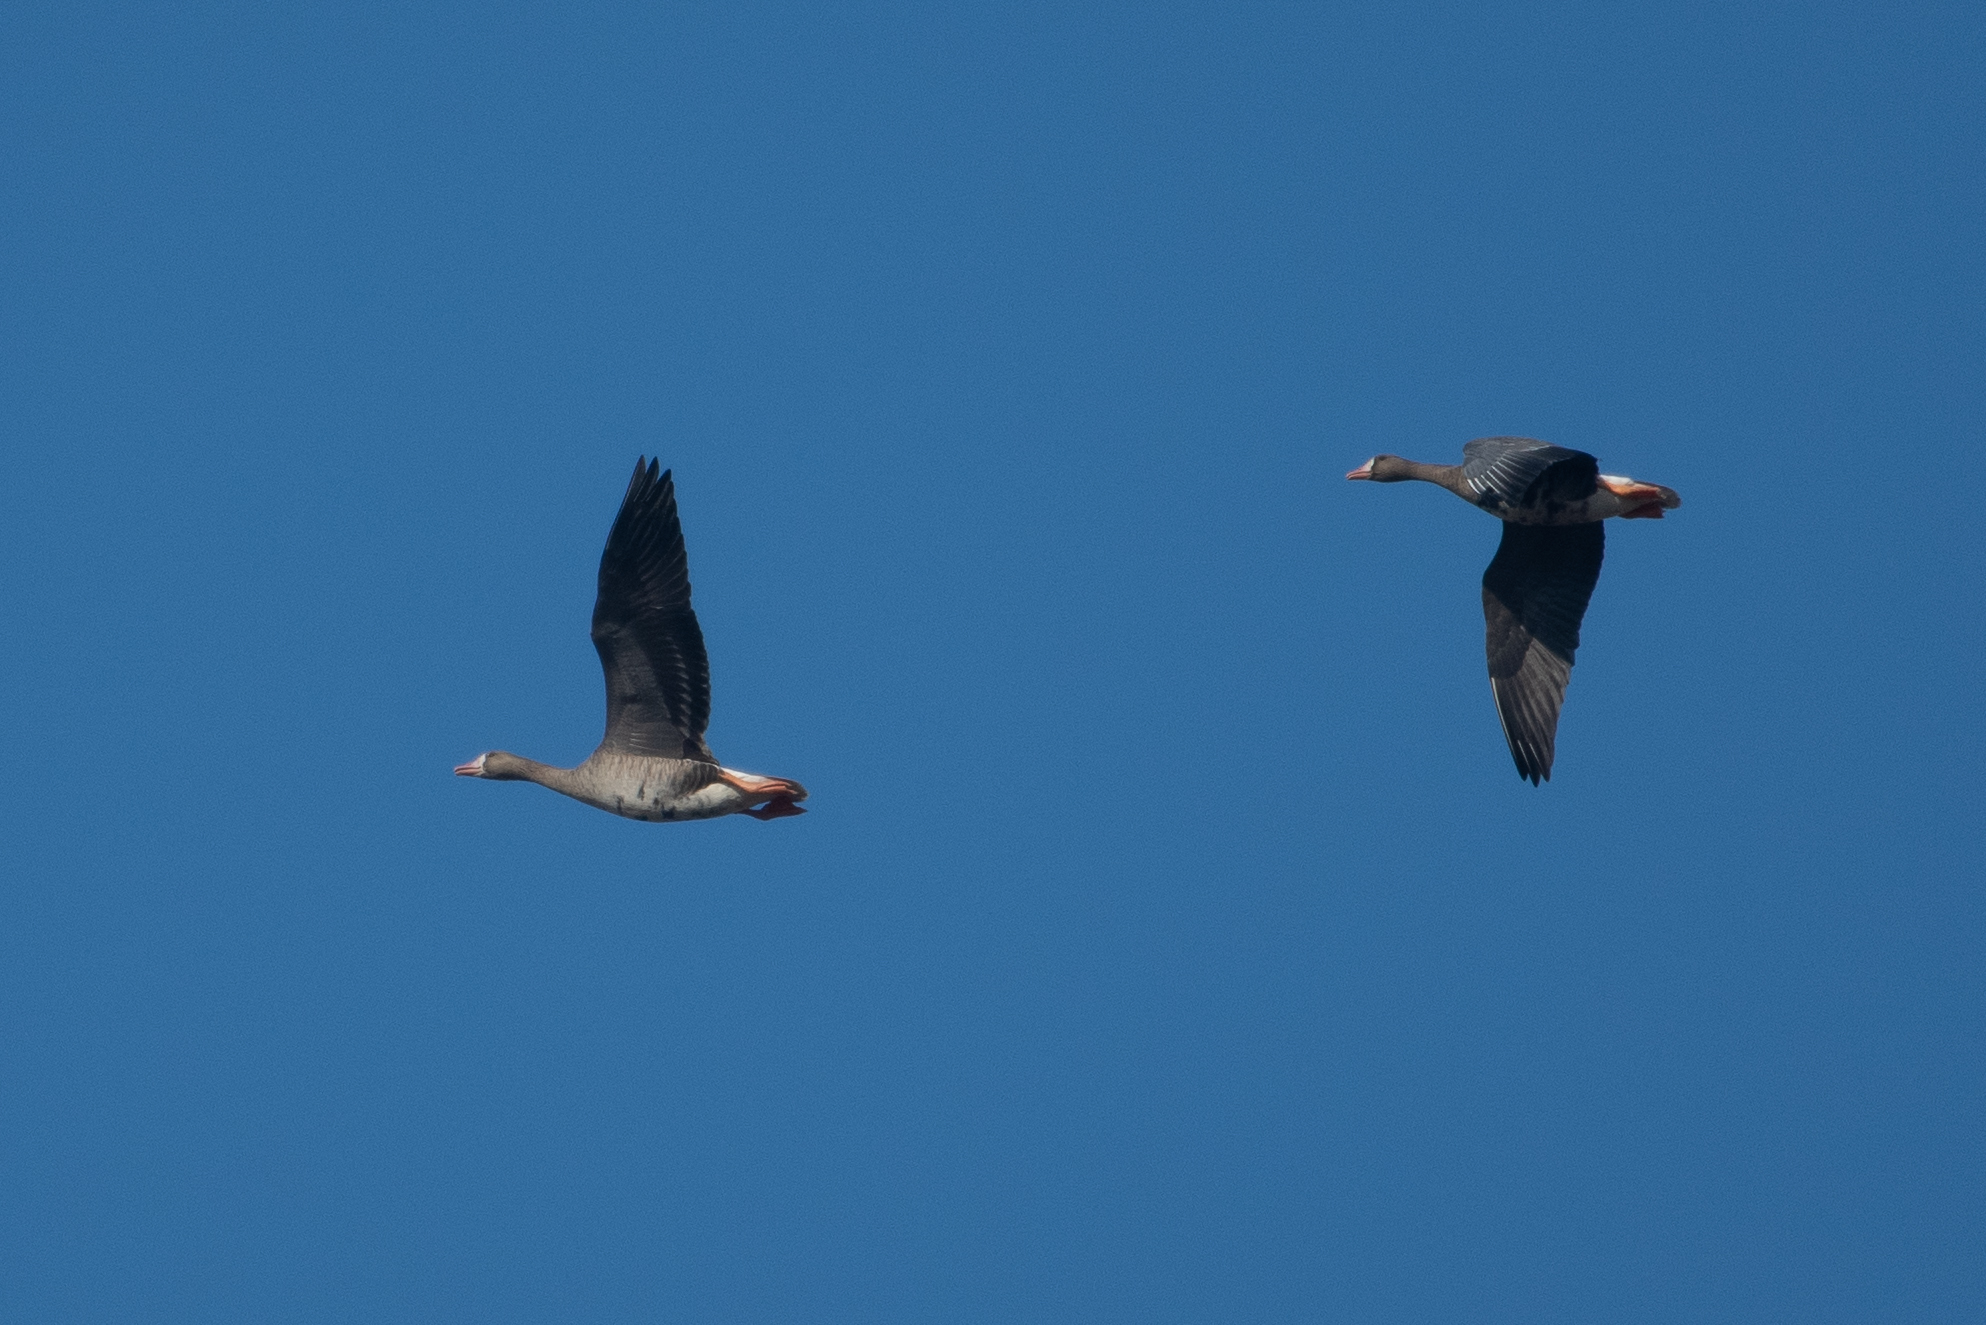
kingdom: Animalia
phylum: Chordata
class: Aves
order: Anseriformes
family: Anatidae
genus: Anser
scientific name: Anser albifrons
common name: Greater white-fronted goose
